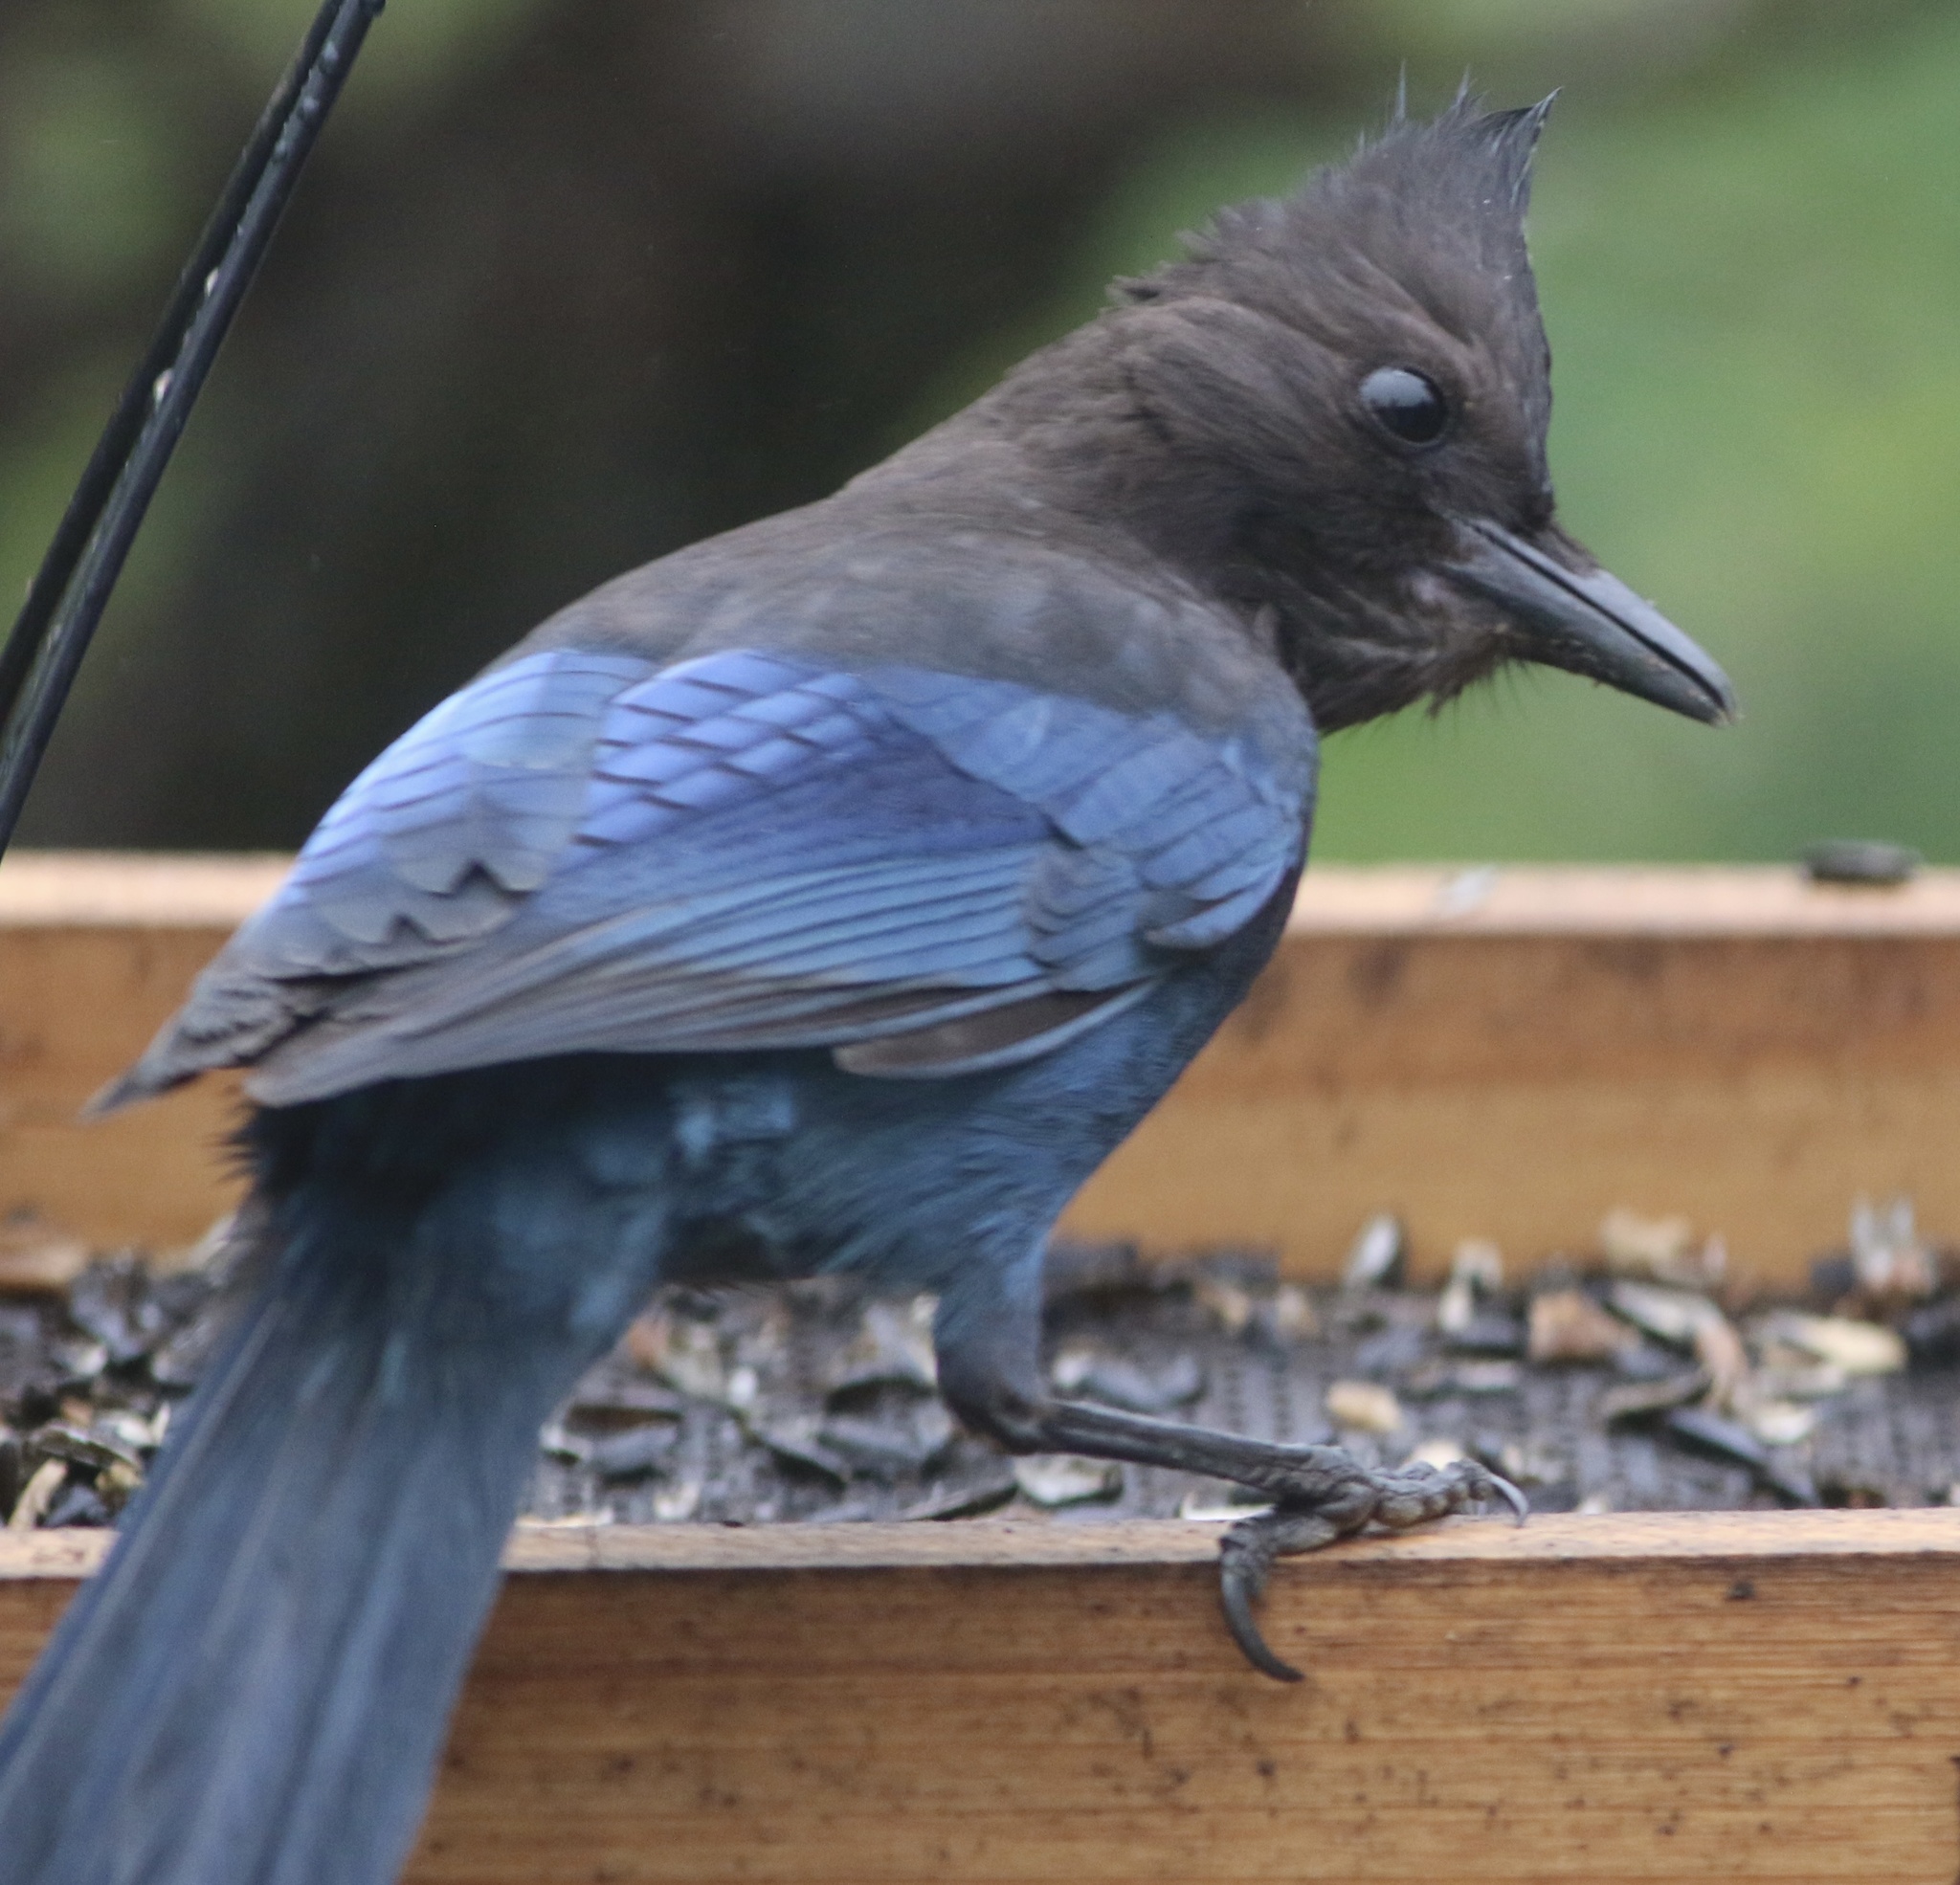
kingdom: Animalia
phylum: Chordata
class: Aves
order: Passeriformes
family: Corvidae
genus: Cyanocitta
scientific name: Cyanocitta stelleri
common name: Steller's jay
